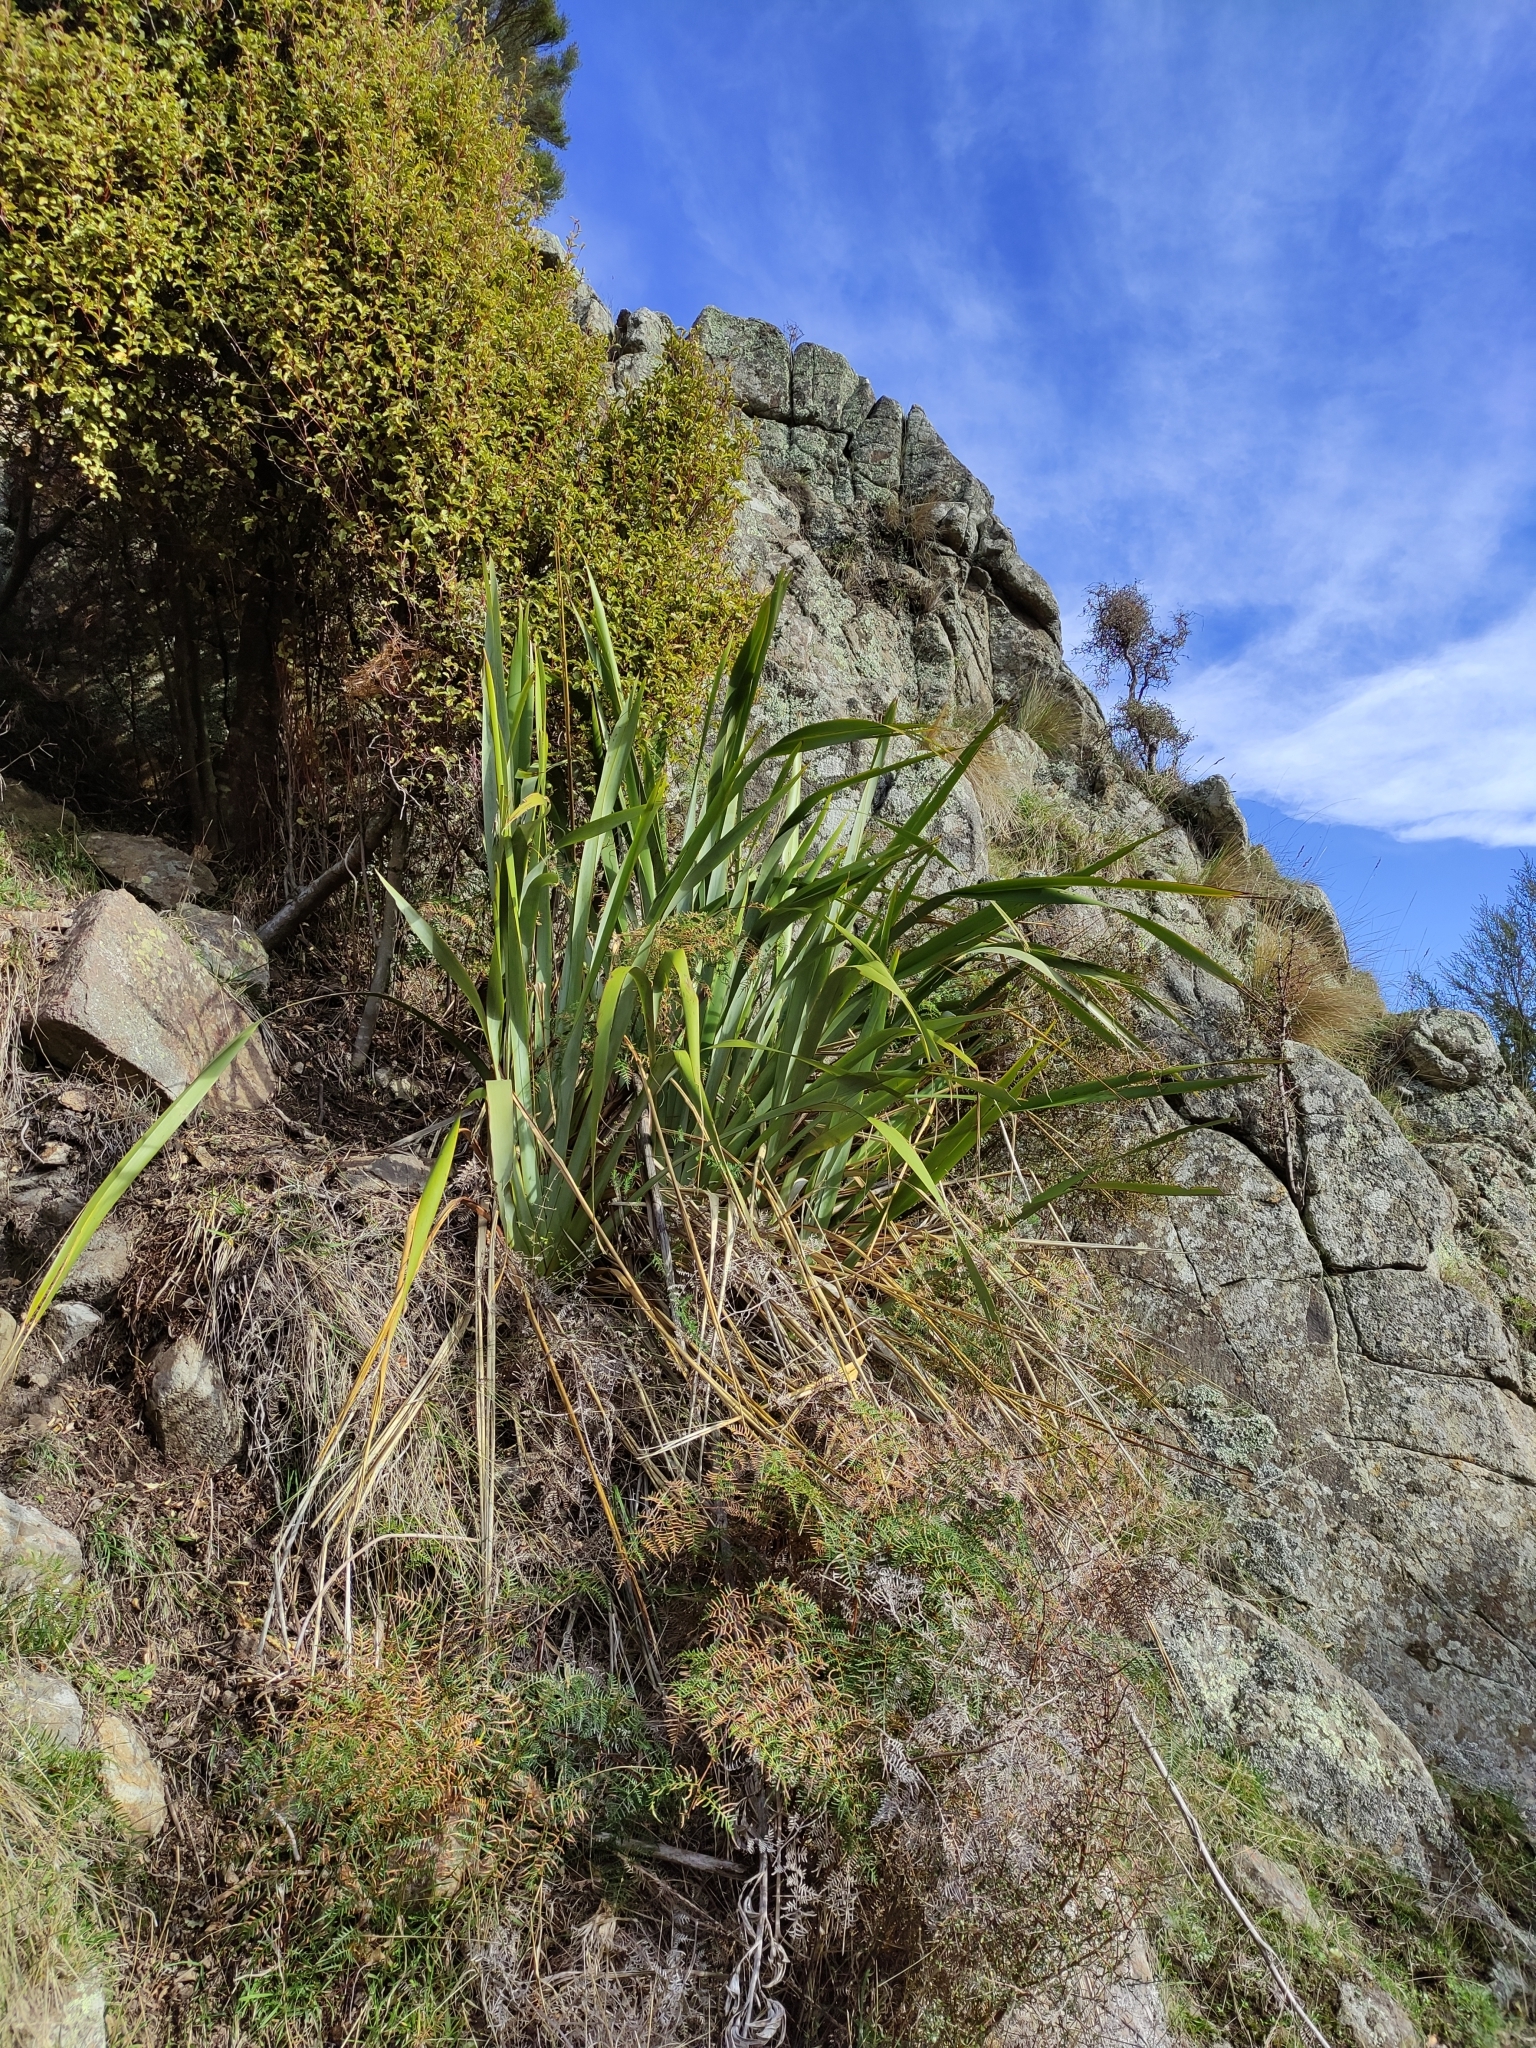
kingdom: Plantae
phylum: Tracheophyta
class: Liliopsida
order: Asparagales
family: Asphodelaceae
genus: Phormium
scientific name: Phormium colensoi
